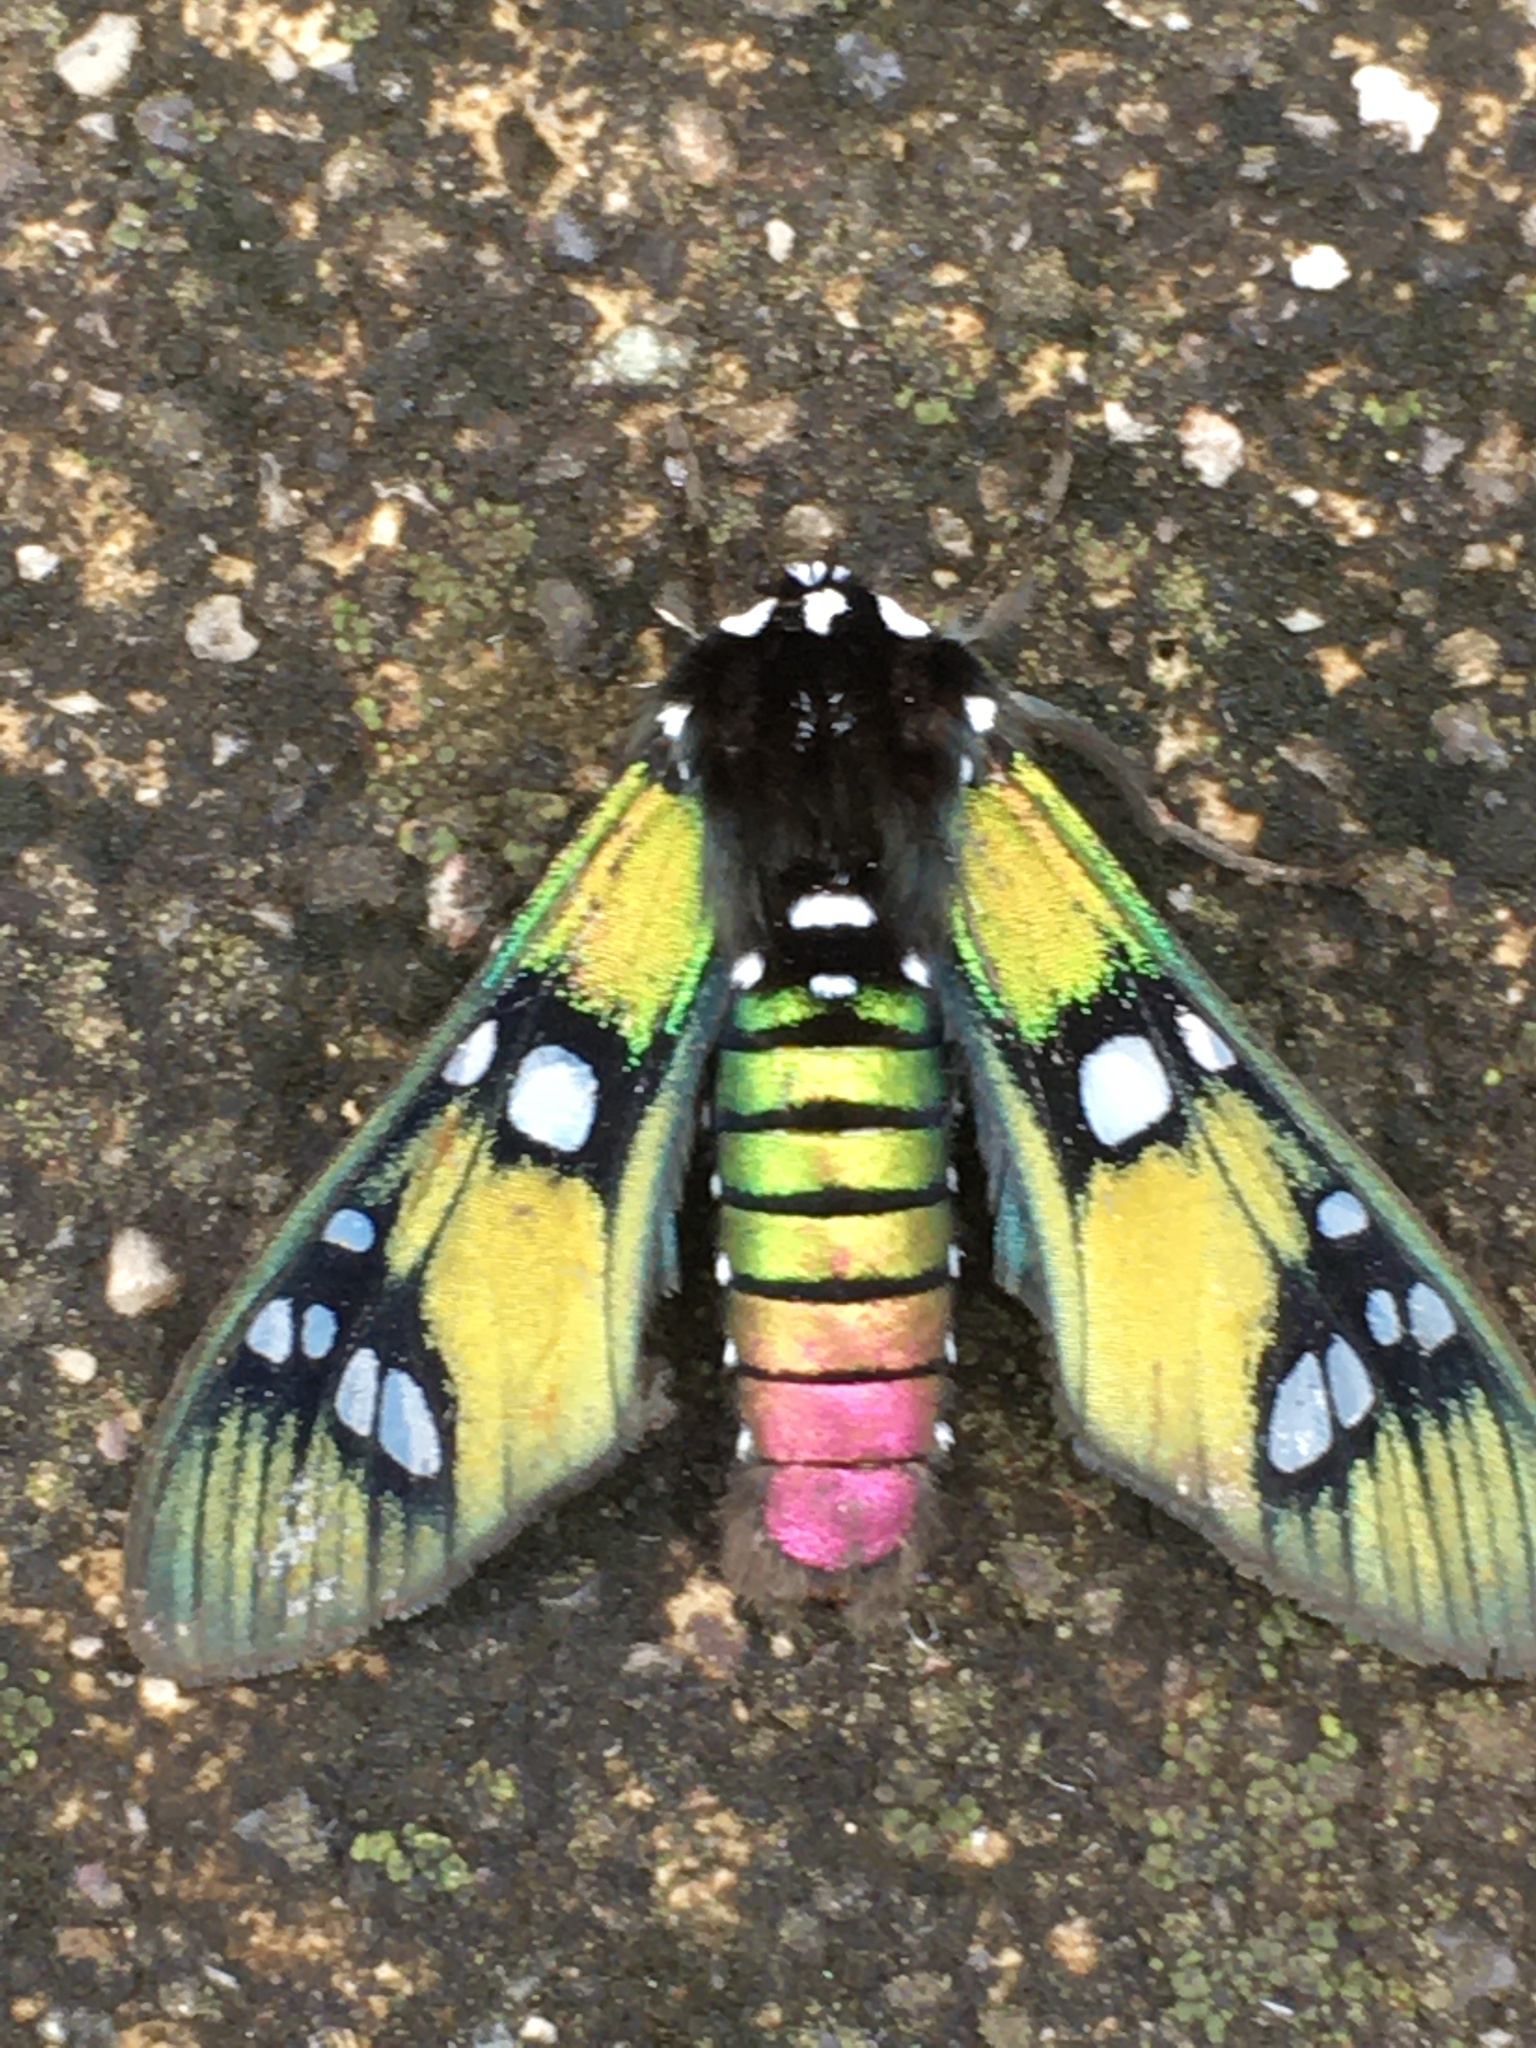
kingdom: Animalia
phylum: Arthropoda
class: Insecta
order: Lepidoptera
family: Erebidae
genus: Chrysocale
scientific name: Chrysocale principalis
